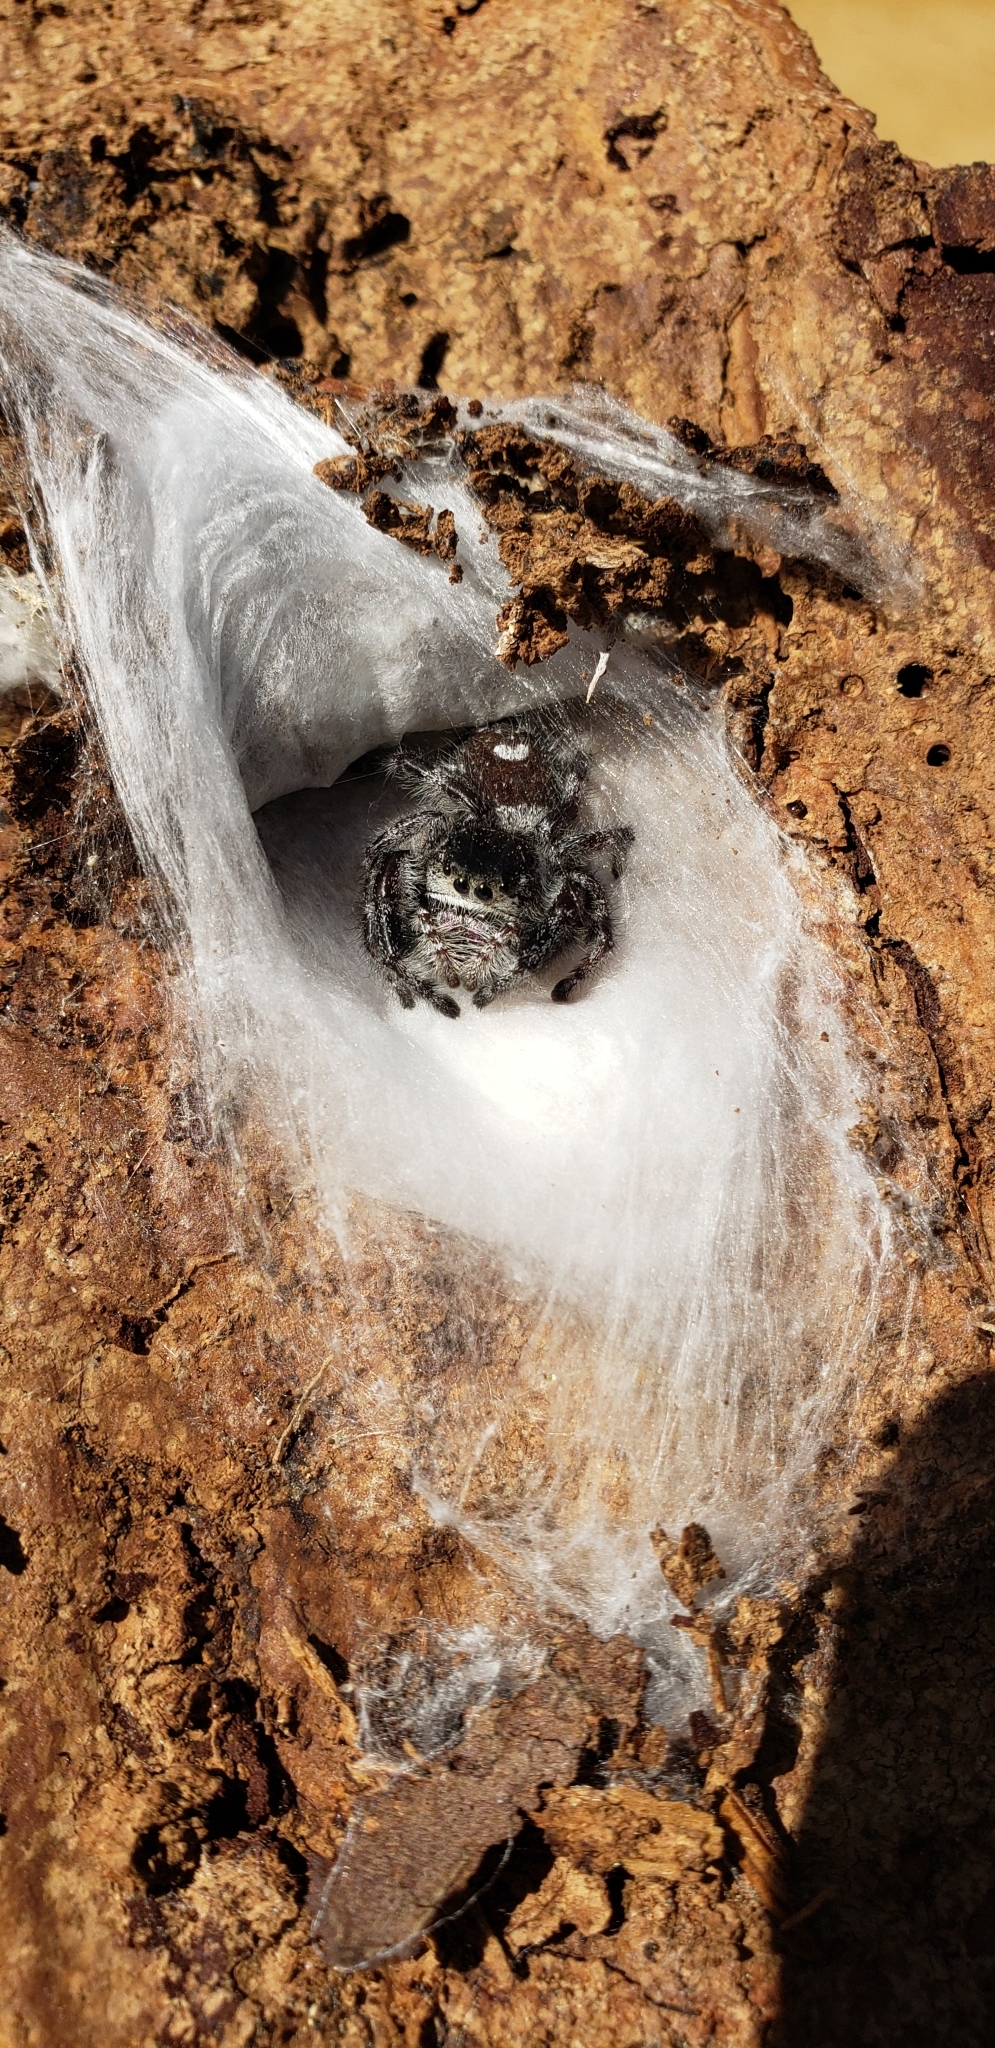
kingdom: Animalia
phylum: Arthropoda
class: Arachnida
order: Araneae
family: Salticidae
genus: Phidippus
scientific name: Phidippus regius
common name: Regal jumper
